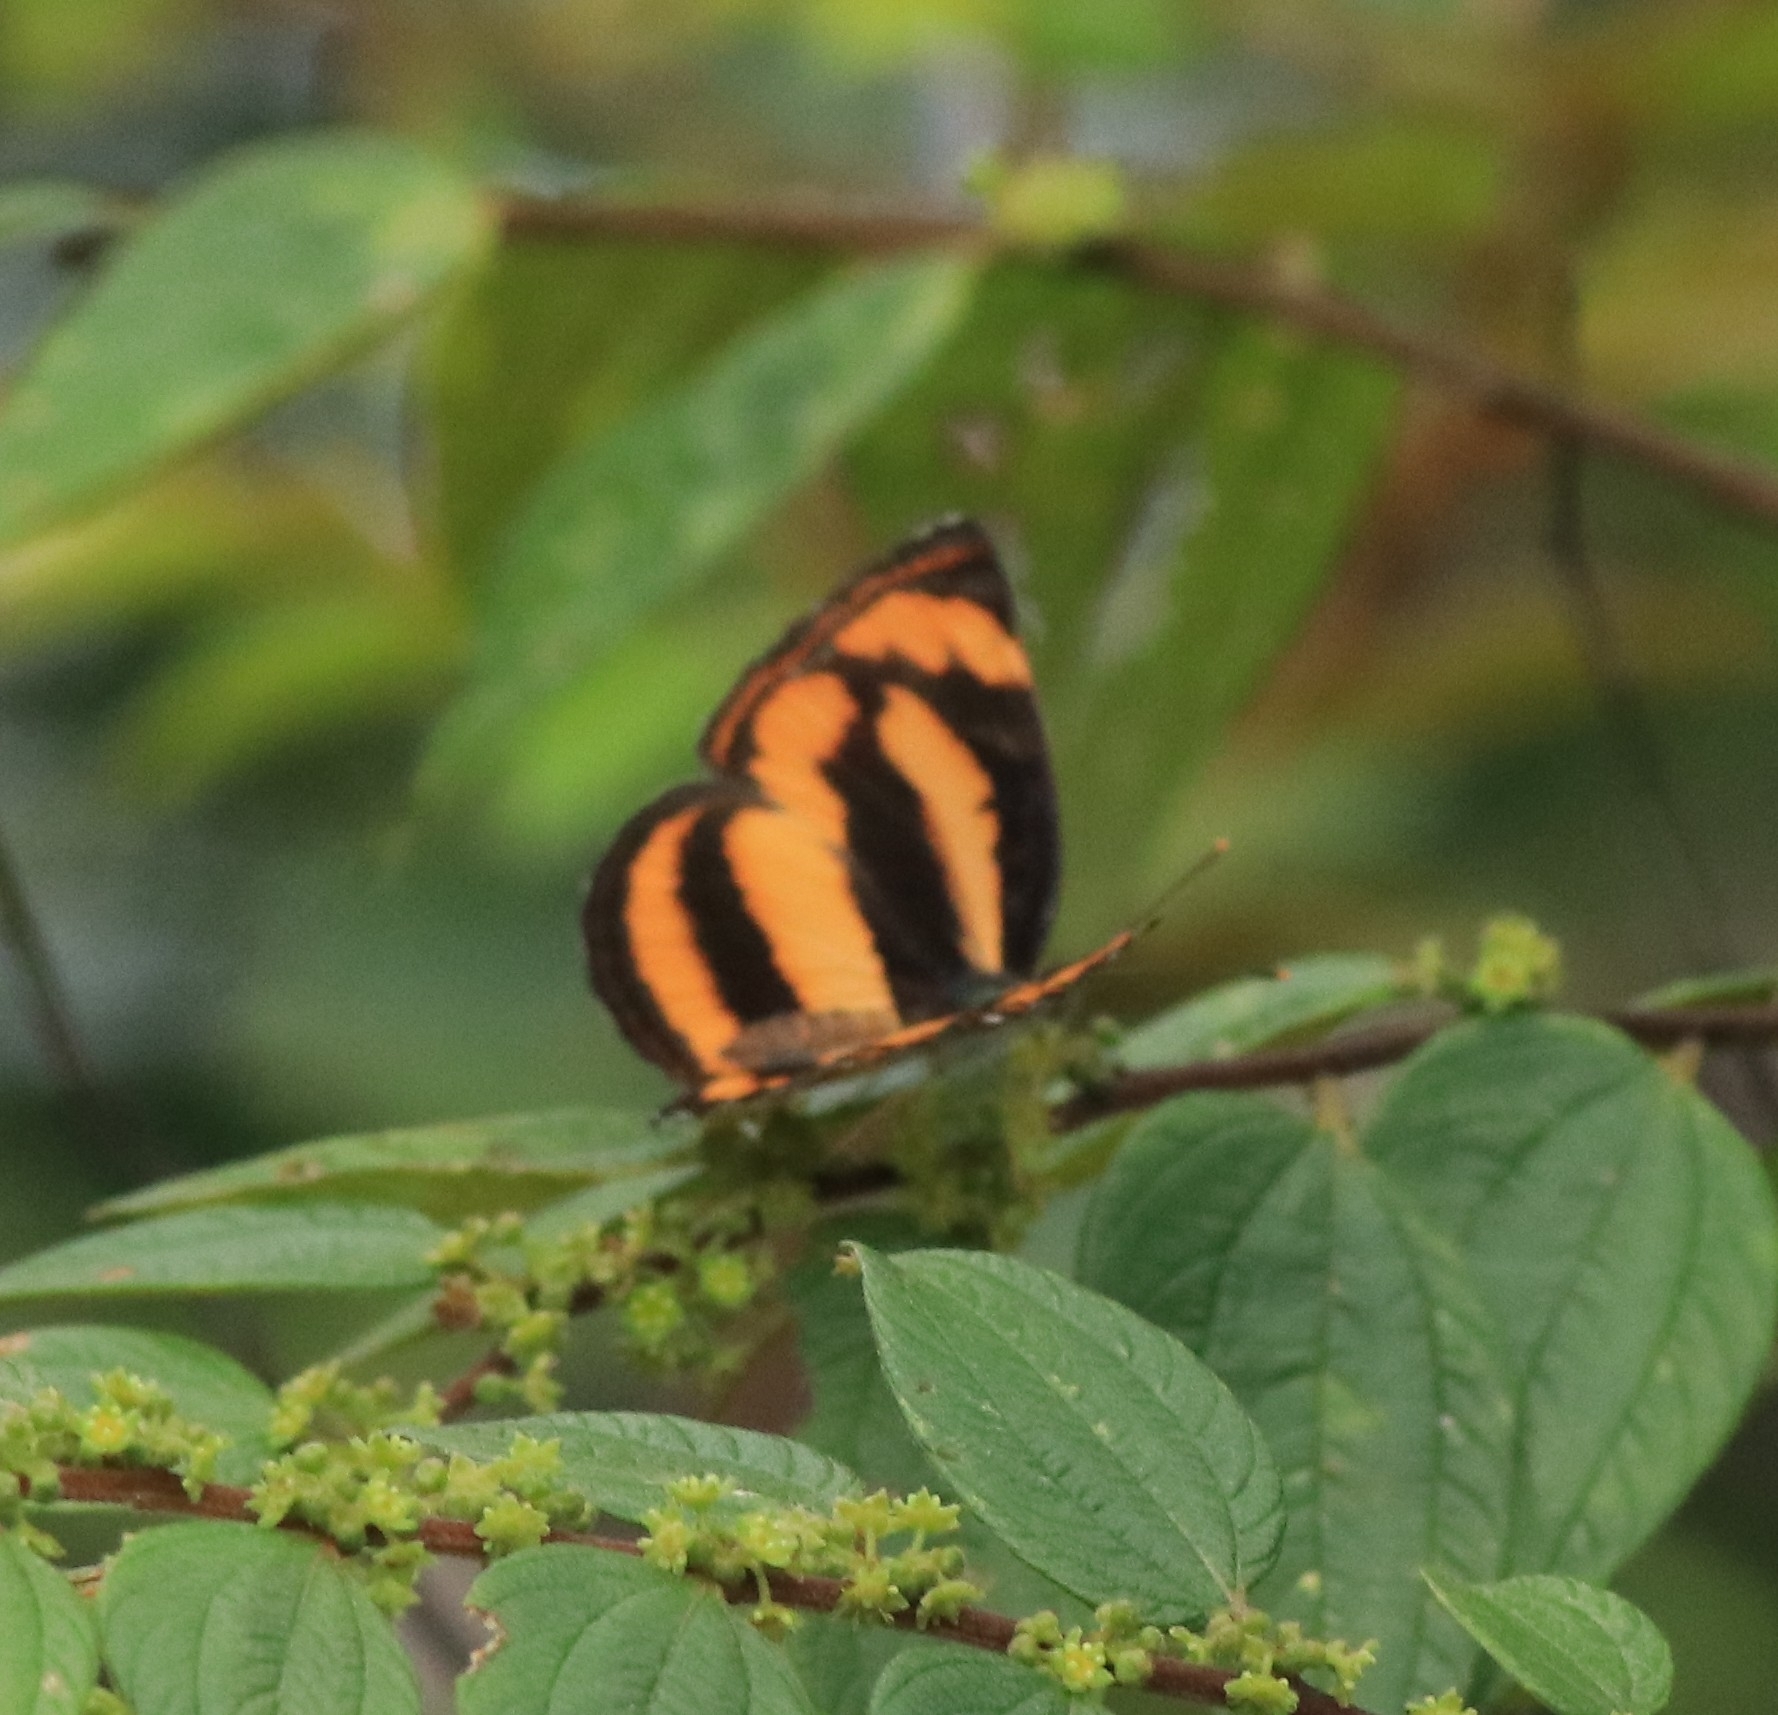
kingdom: Animalia
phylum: Arthropoda
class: Insecta
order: Lepidoptera
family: Nymphalidae
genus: Pantoporia
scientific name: Pantoporia hordonia
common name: Common lascar
